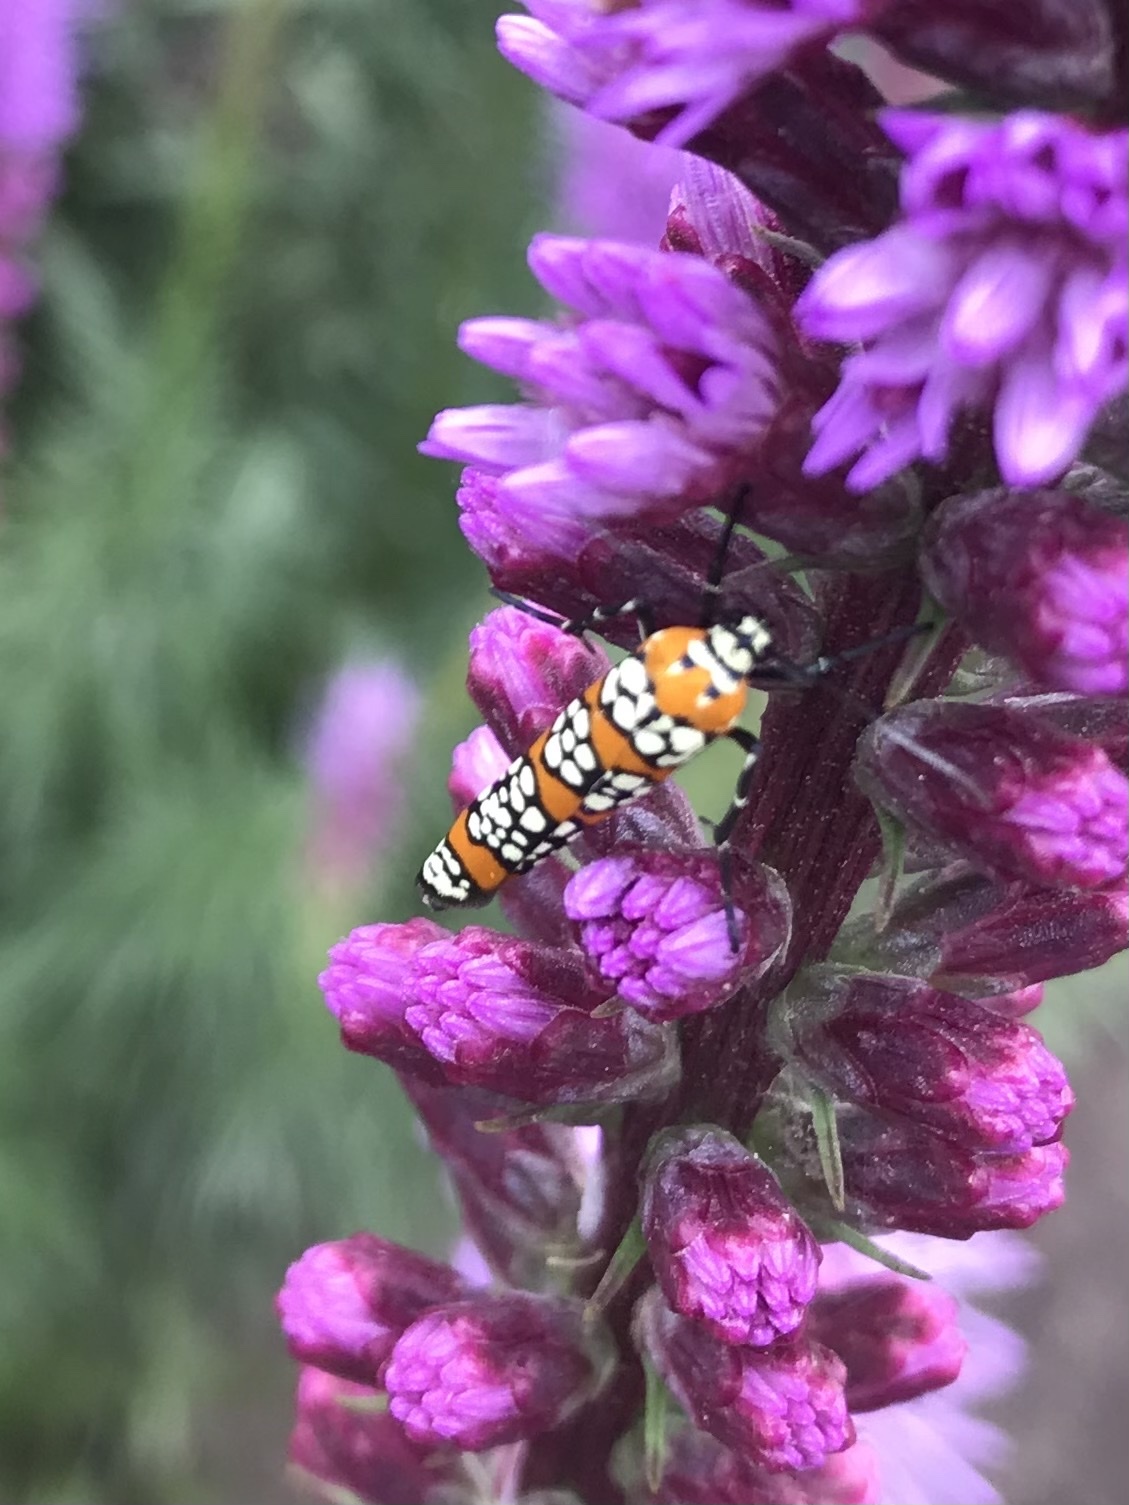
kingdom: Animalia
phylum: Arthropoda
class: Insecta
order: Lepidoptera
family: Attevidae
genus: Atteva
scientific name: Atteva punctella
